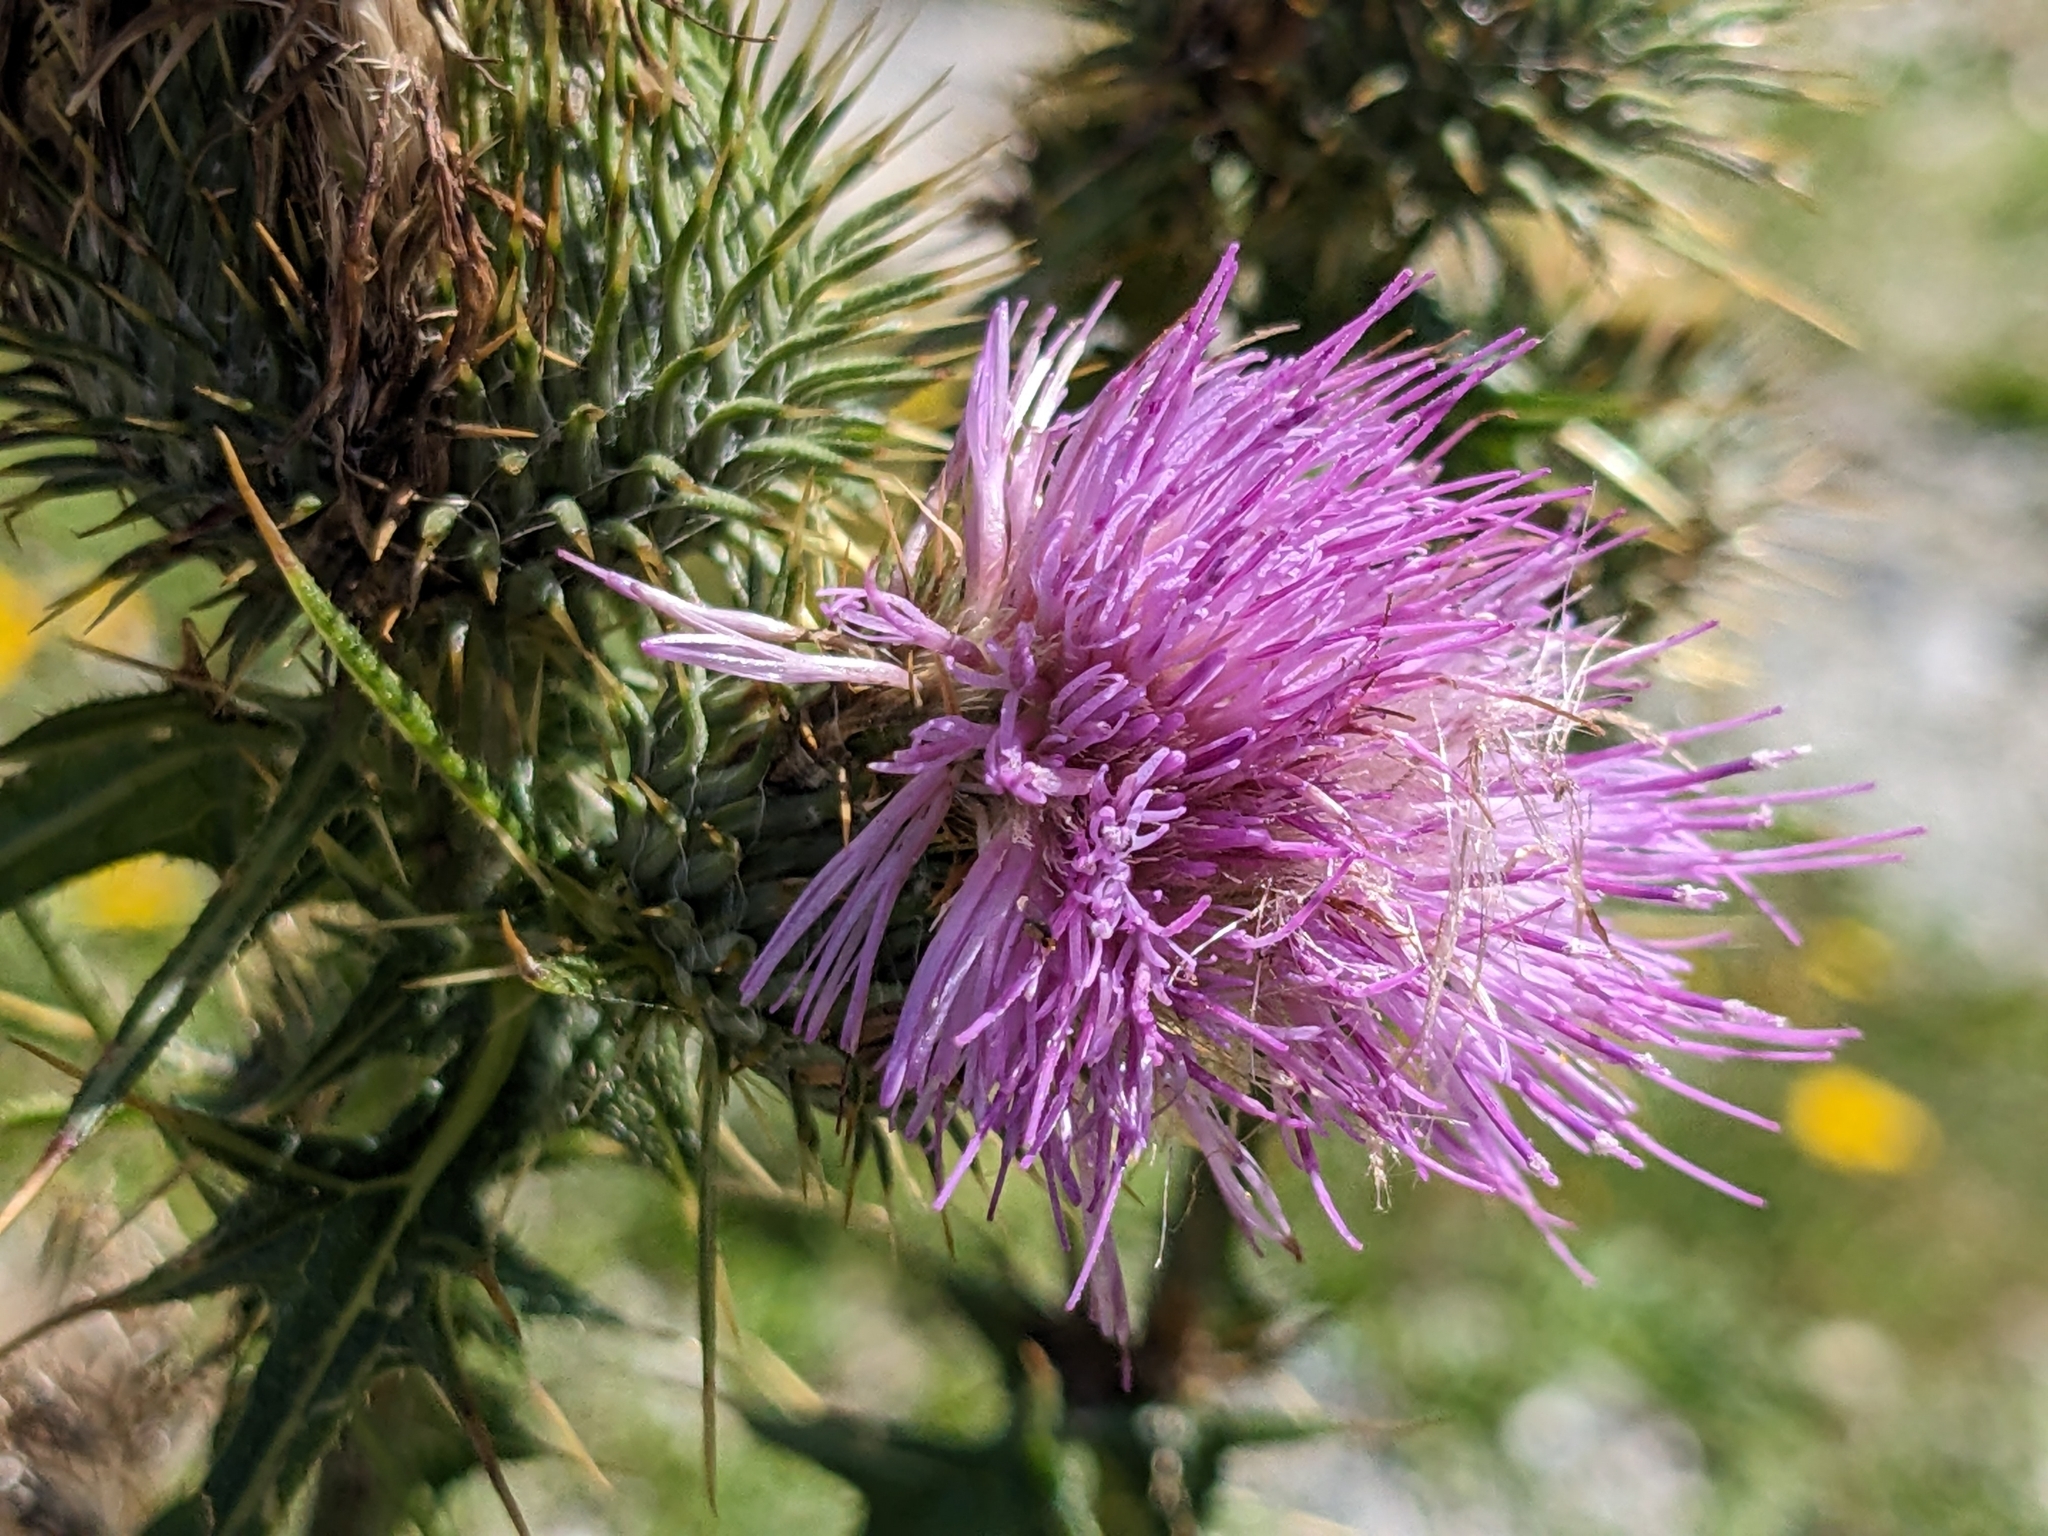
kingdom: Plantae
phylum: Tracheophyta
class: Magnoliopsida
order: Asterales
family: Asteraceae
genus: Cirsium
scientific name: Cirsium vulgare
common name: Bull thistle
